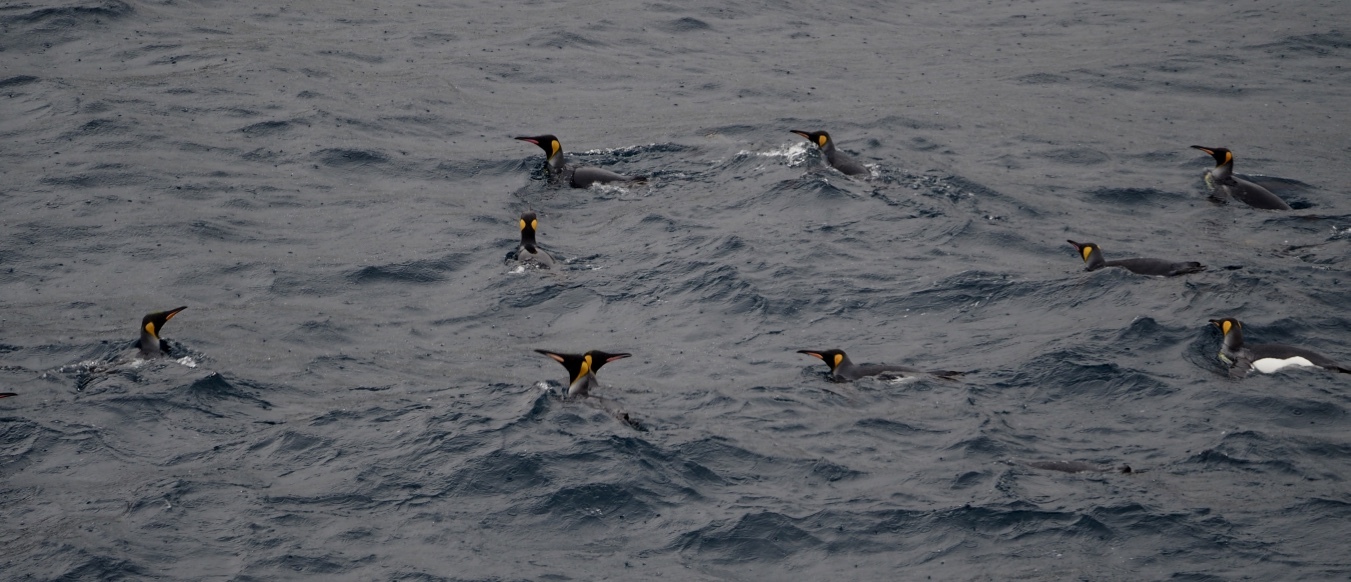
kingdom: Animalia
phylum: Chordata
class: Aves
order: Sphenisciformes
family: Spheniscidae
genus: Aptenodytes
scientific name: Aptenodytes patagonicus
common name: King penguin
